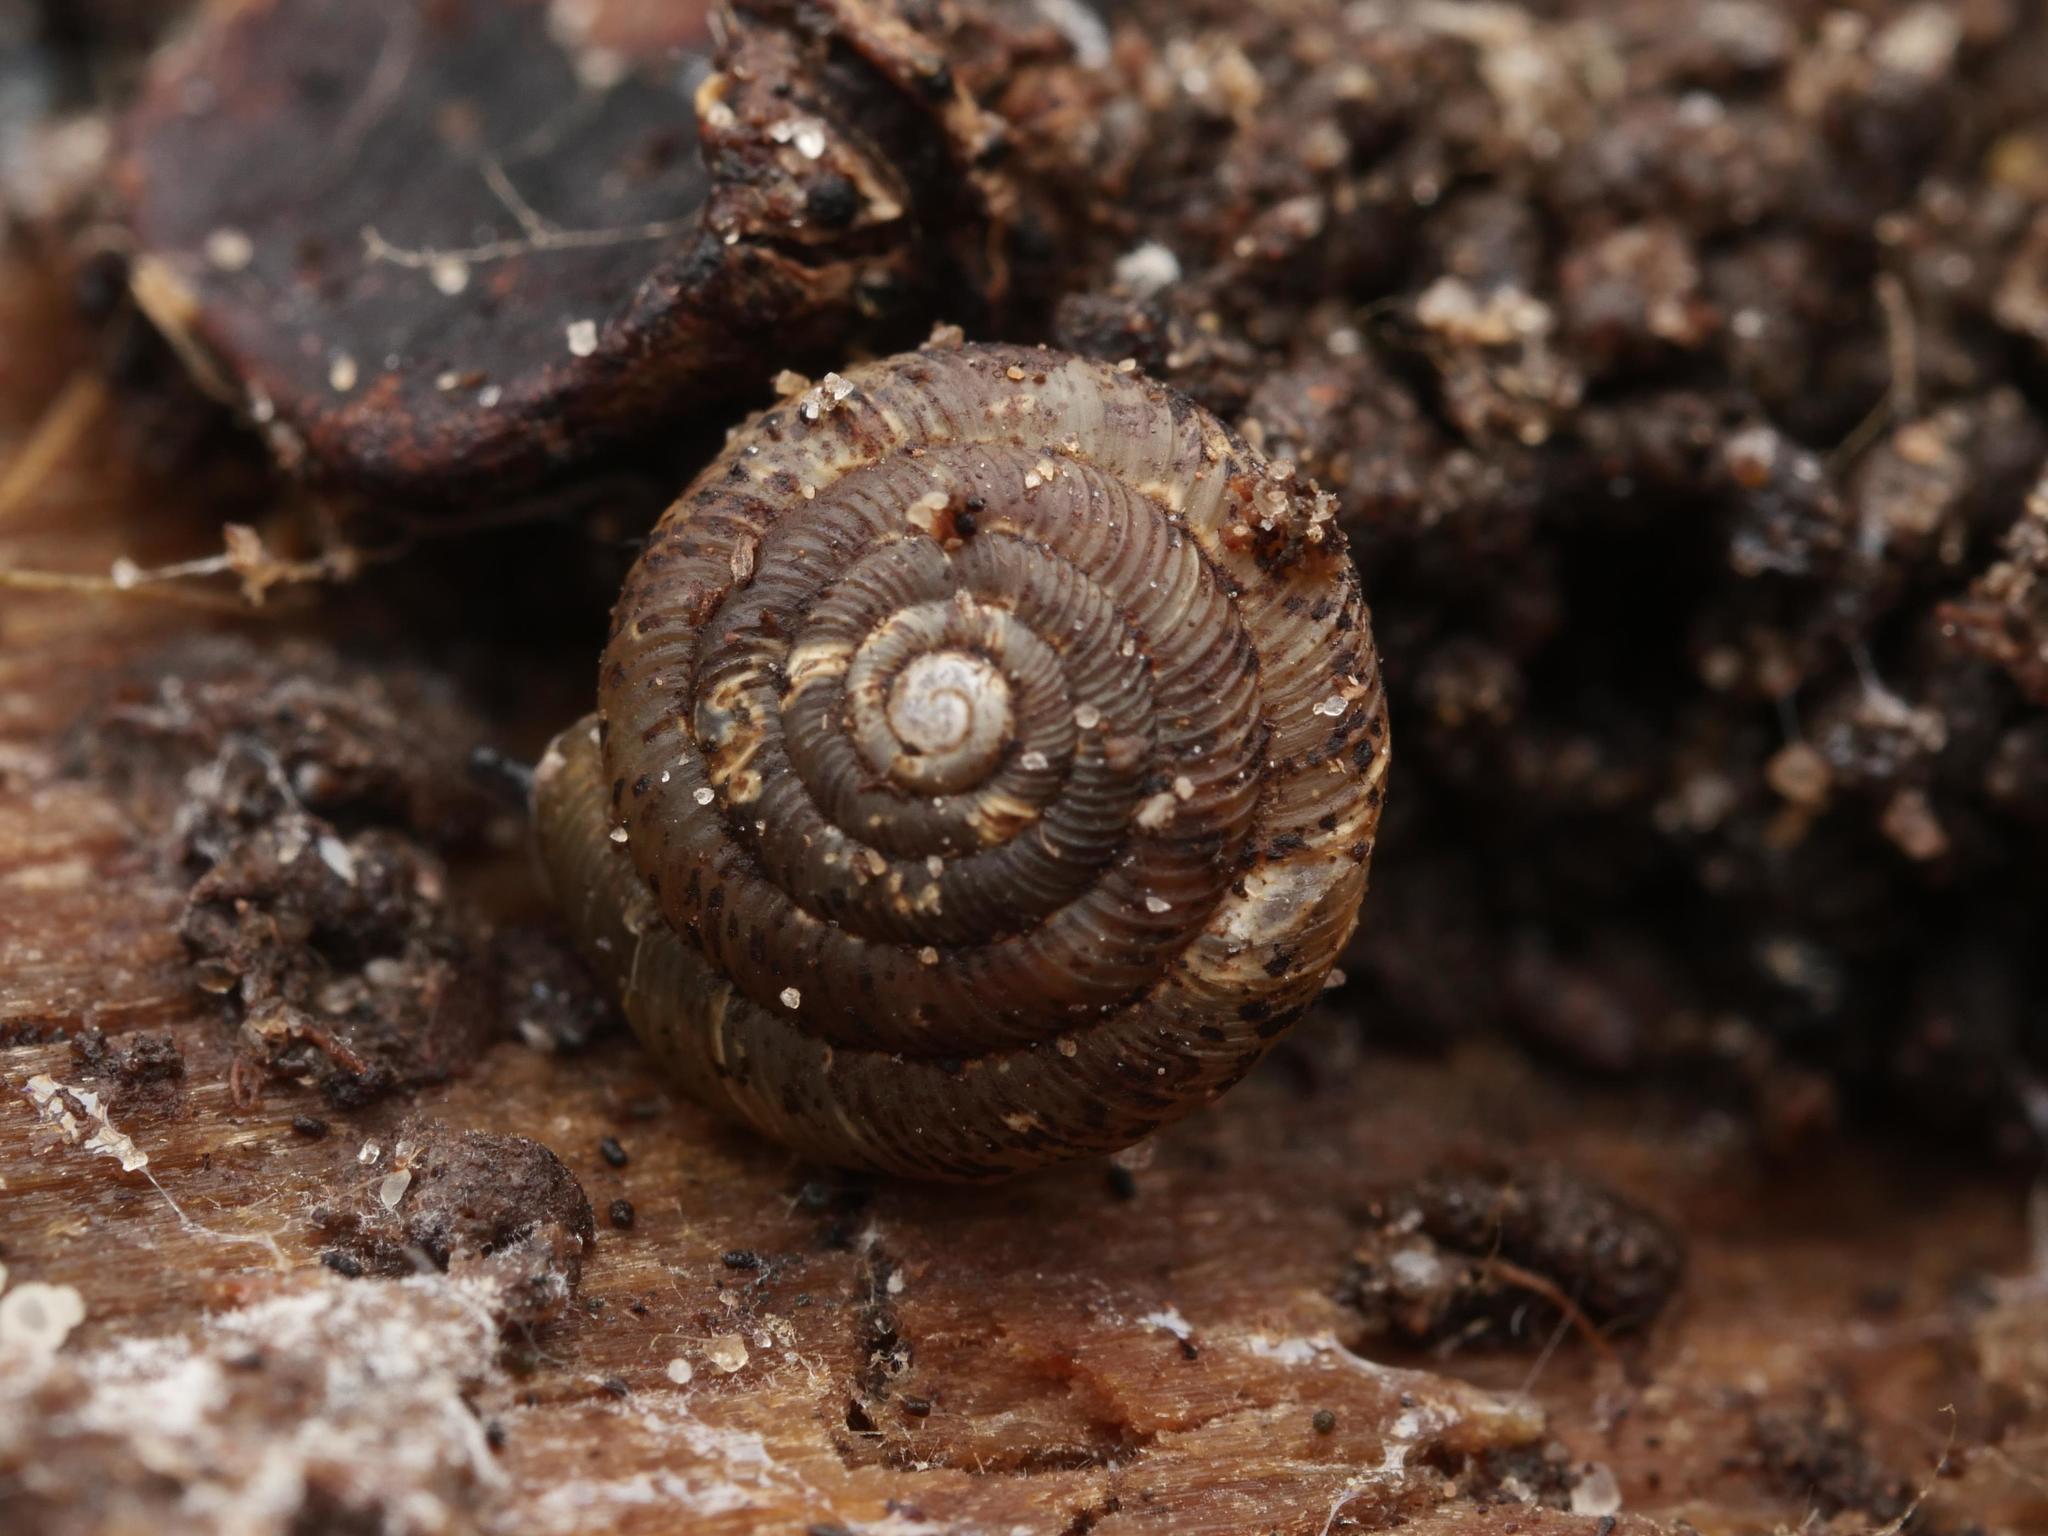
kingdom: Animalia
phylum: Mollusca
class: Gastropoda
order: Stylommatophora
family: Discidae
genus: Discus
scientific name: Discus rotundatus
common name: Rounded snail
